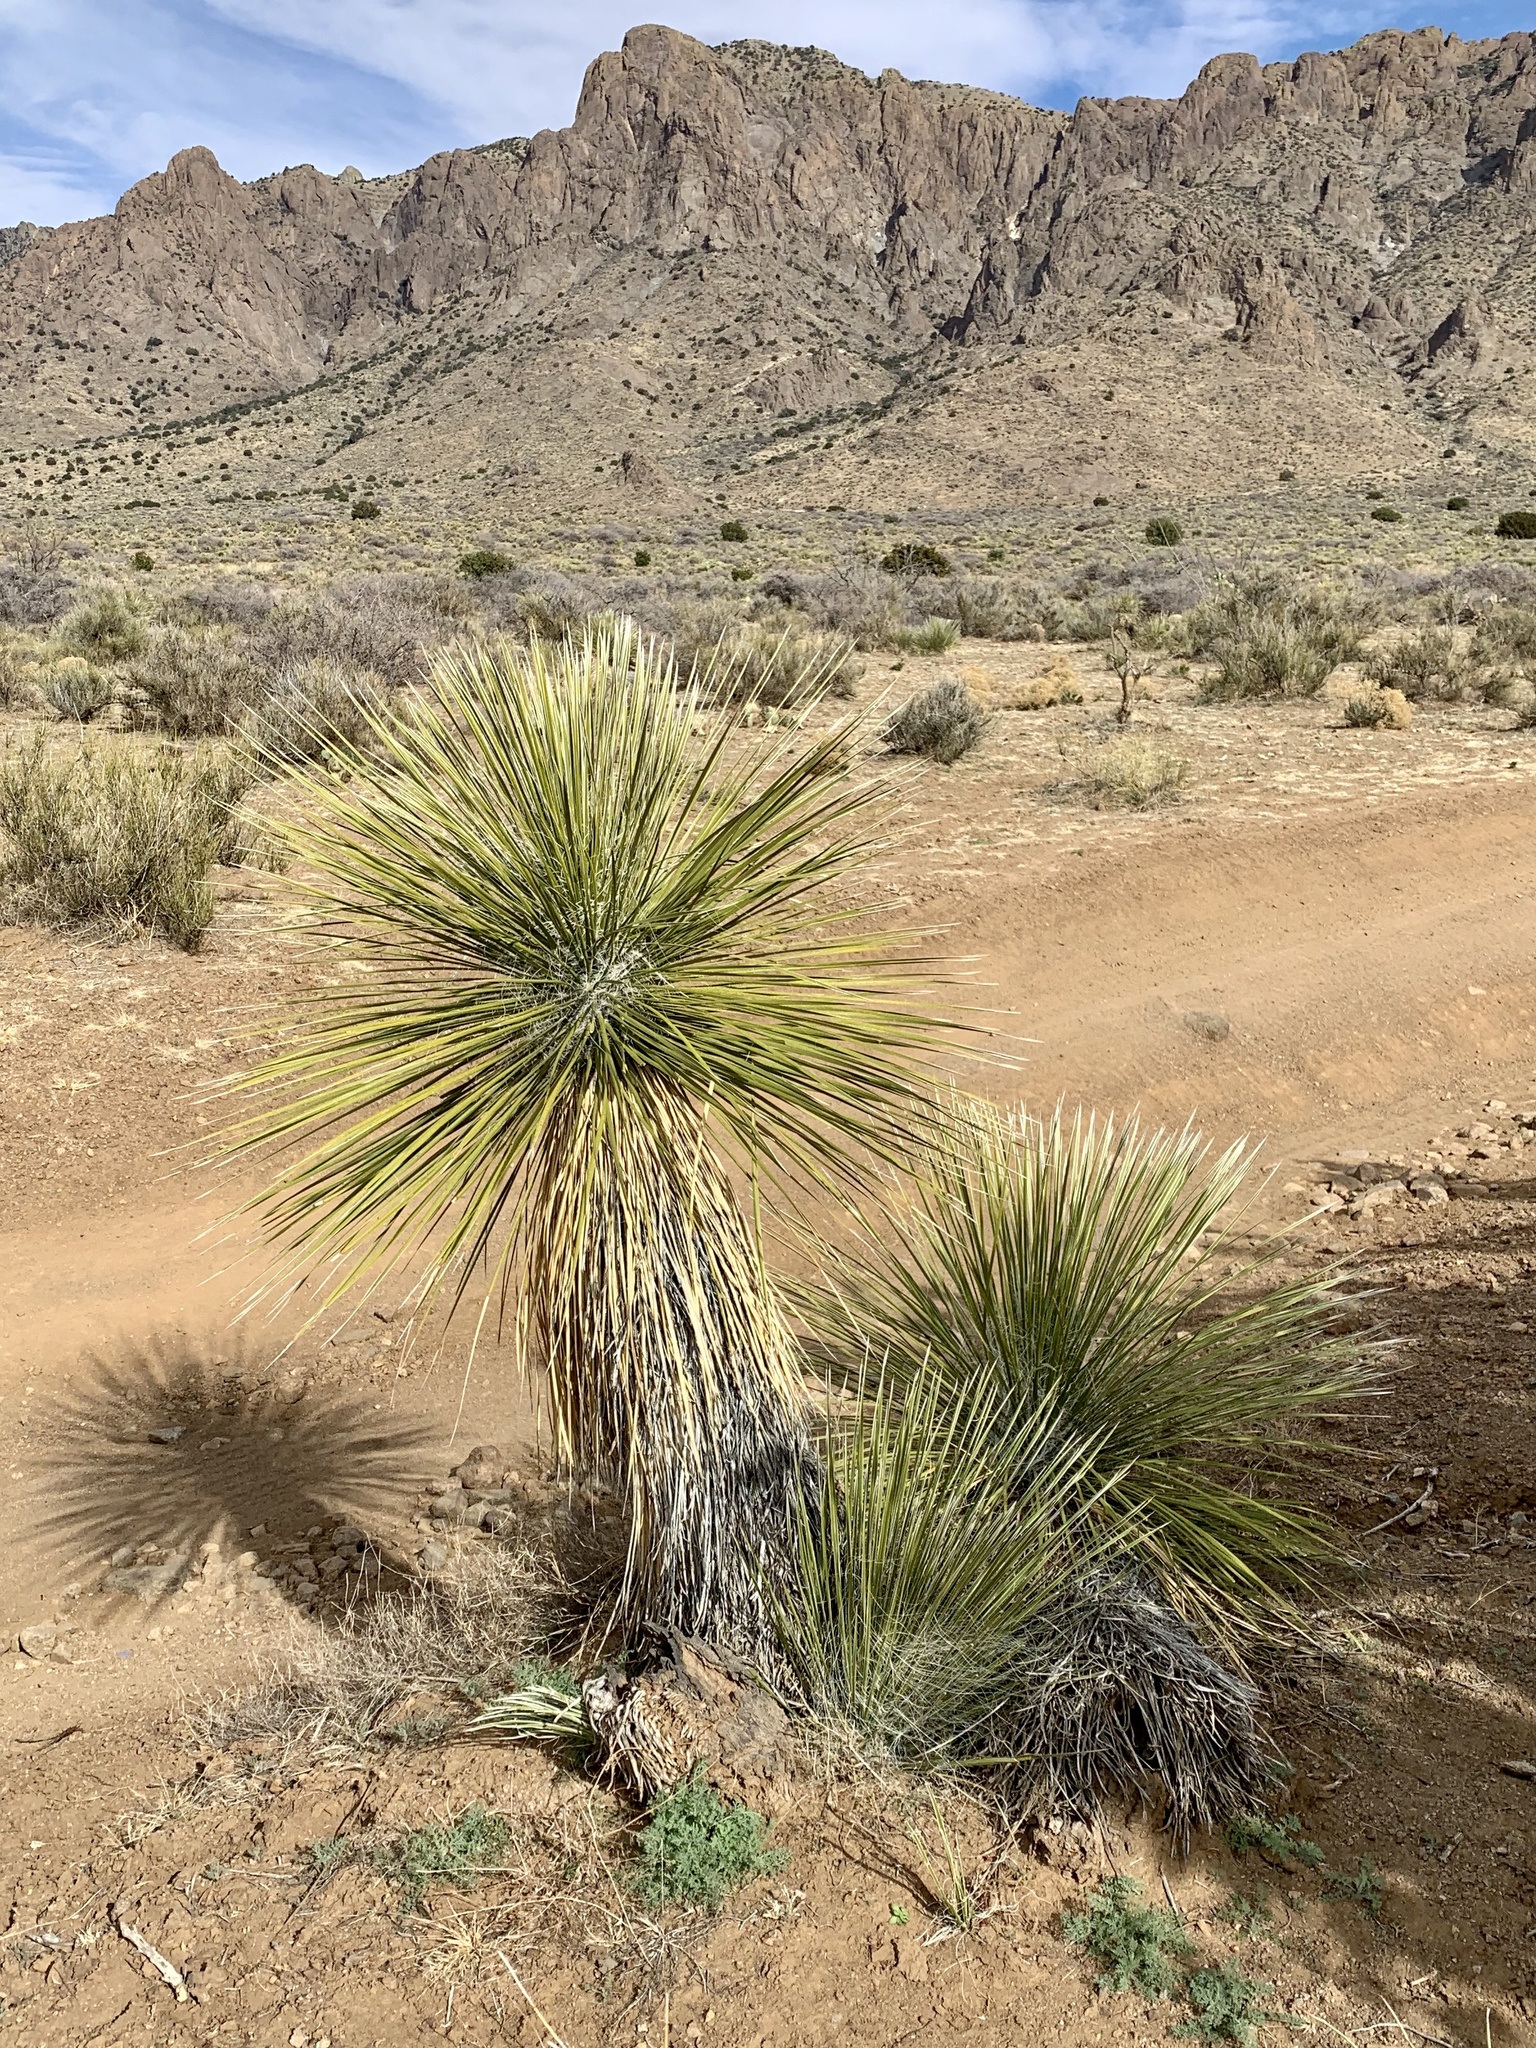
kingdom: Plantae
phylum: Tracheophyta
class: Liliopsida
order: Asparagales
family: Asparagaceae
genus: Yucca
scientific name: Yucca elata
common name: Palmella
